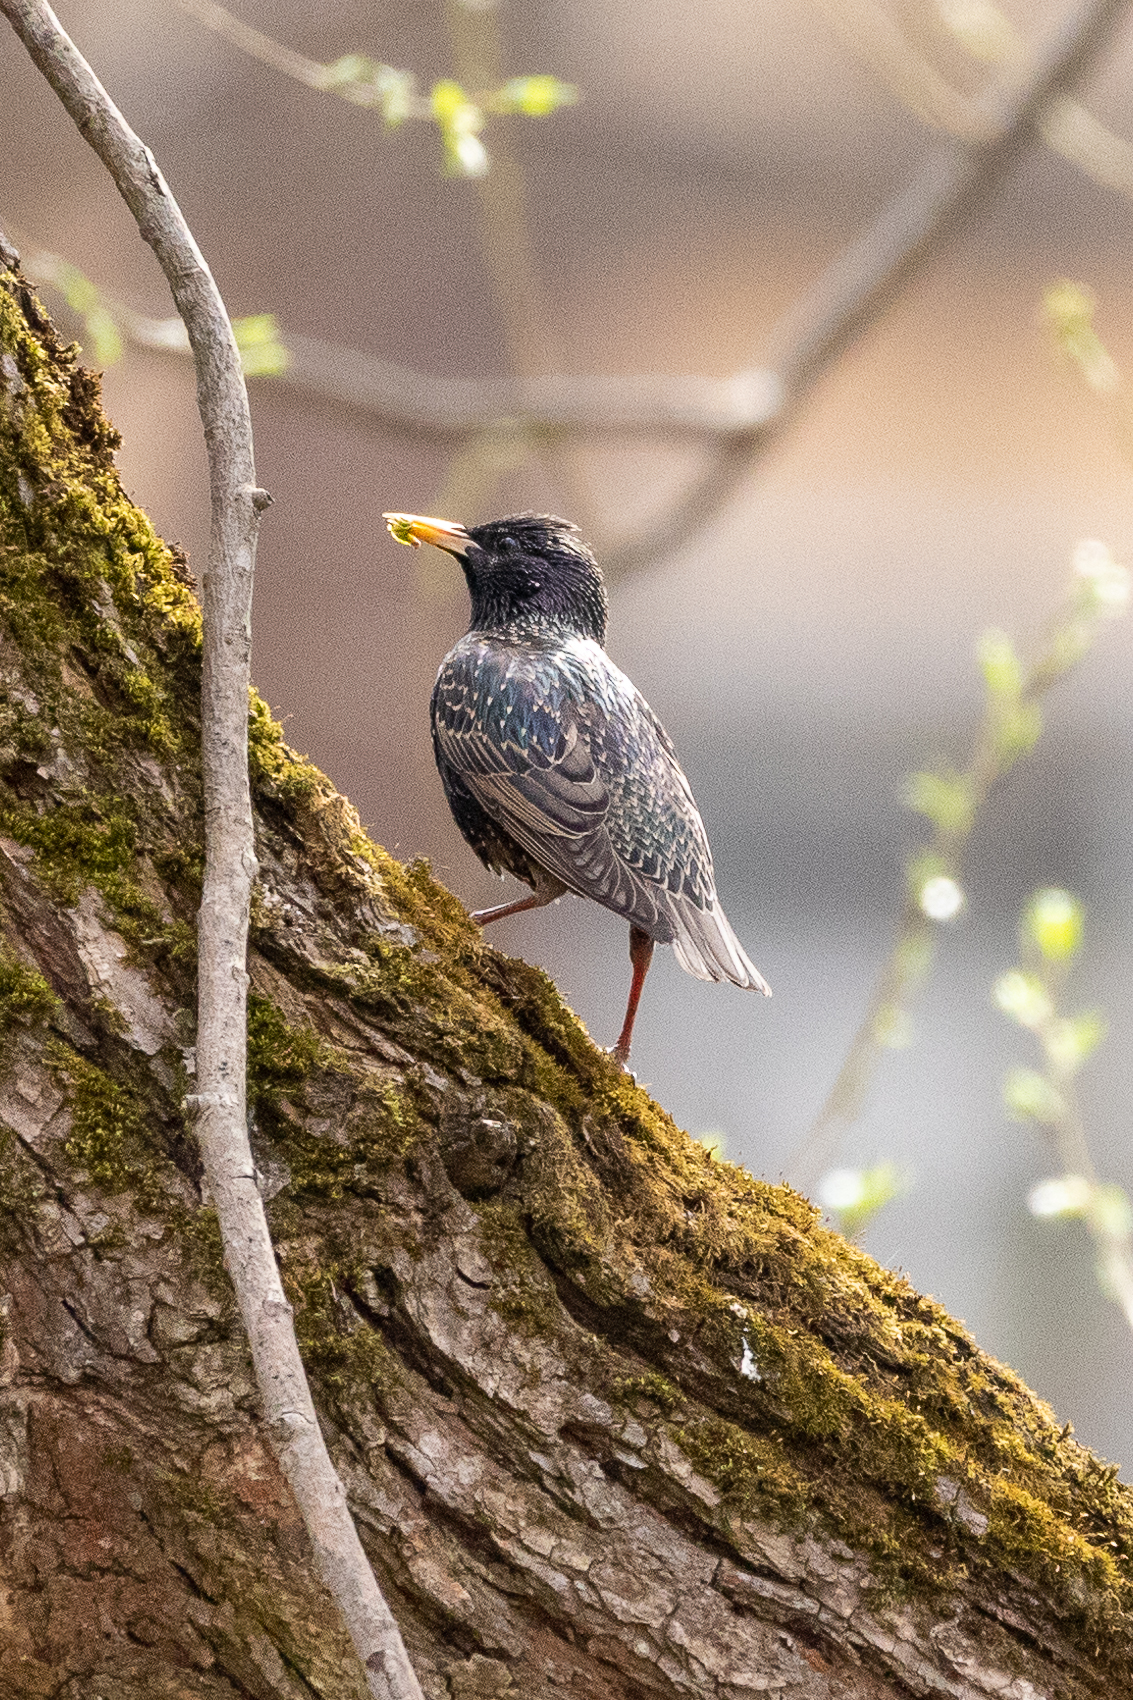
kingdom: Animalia
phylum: Chordata
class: Aves
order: Passeriformes
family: Sturnidae
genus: Sturnus
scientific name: Sturnus vulgaris
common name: Common starling
